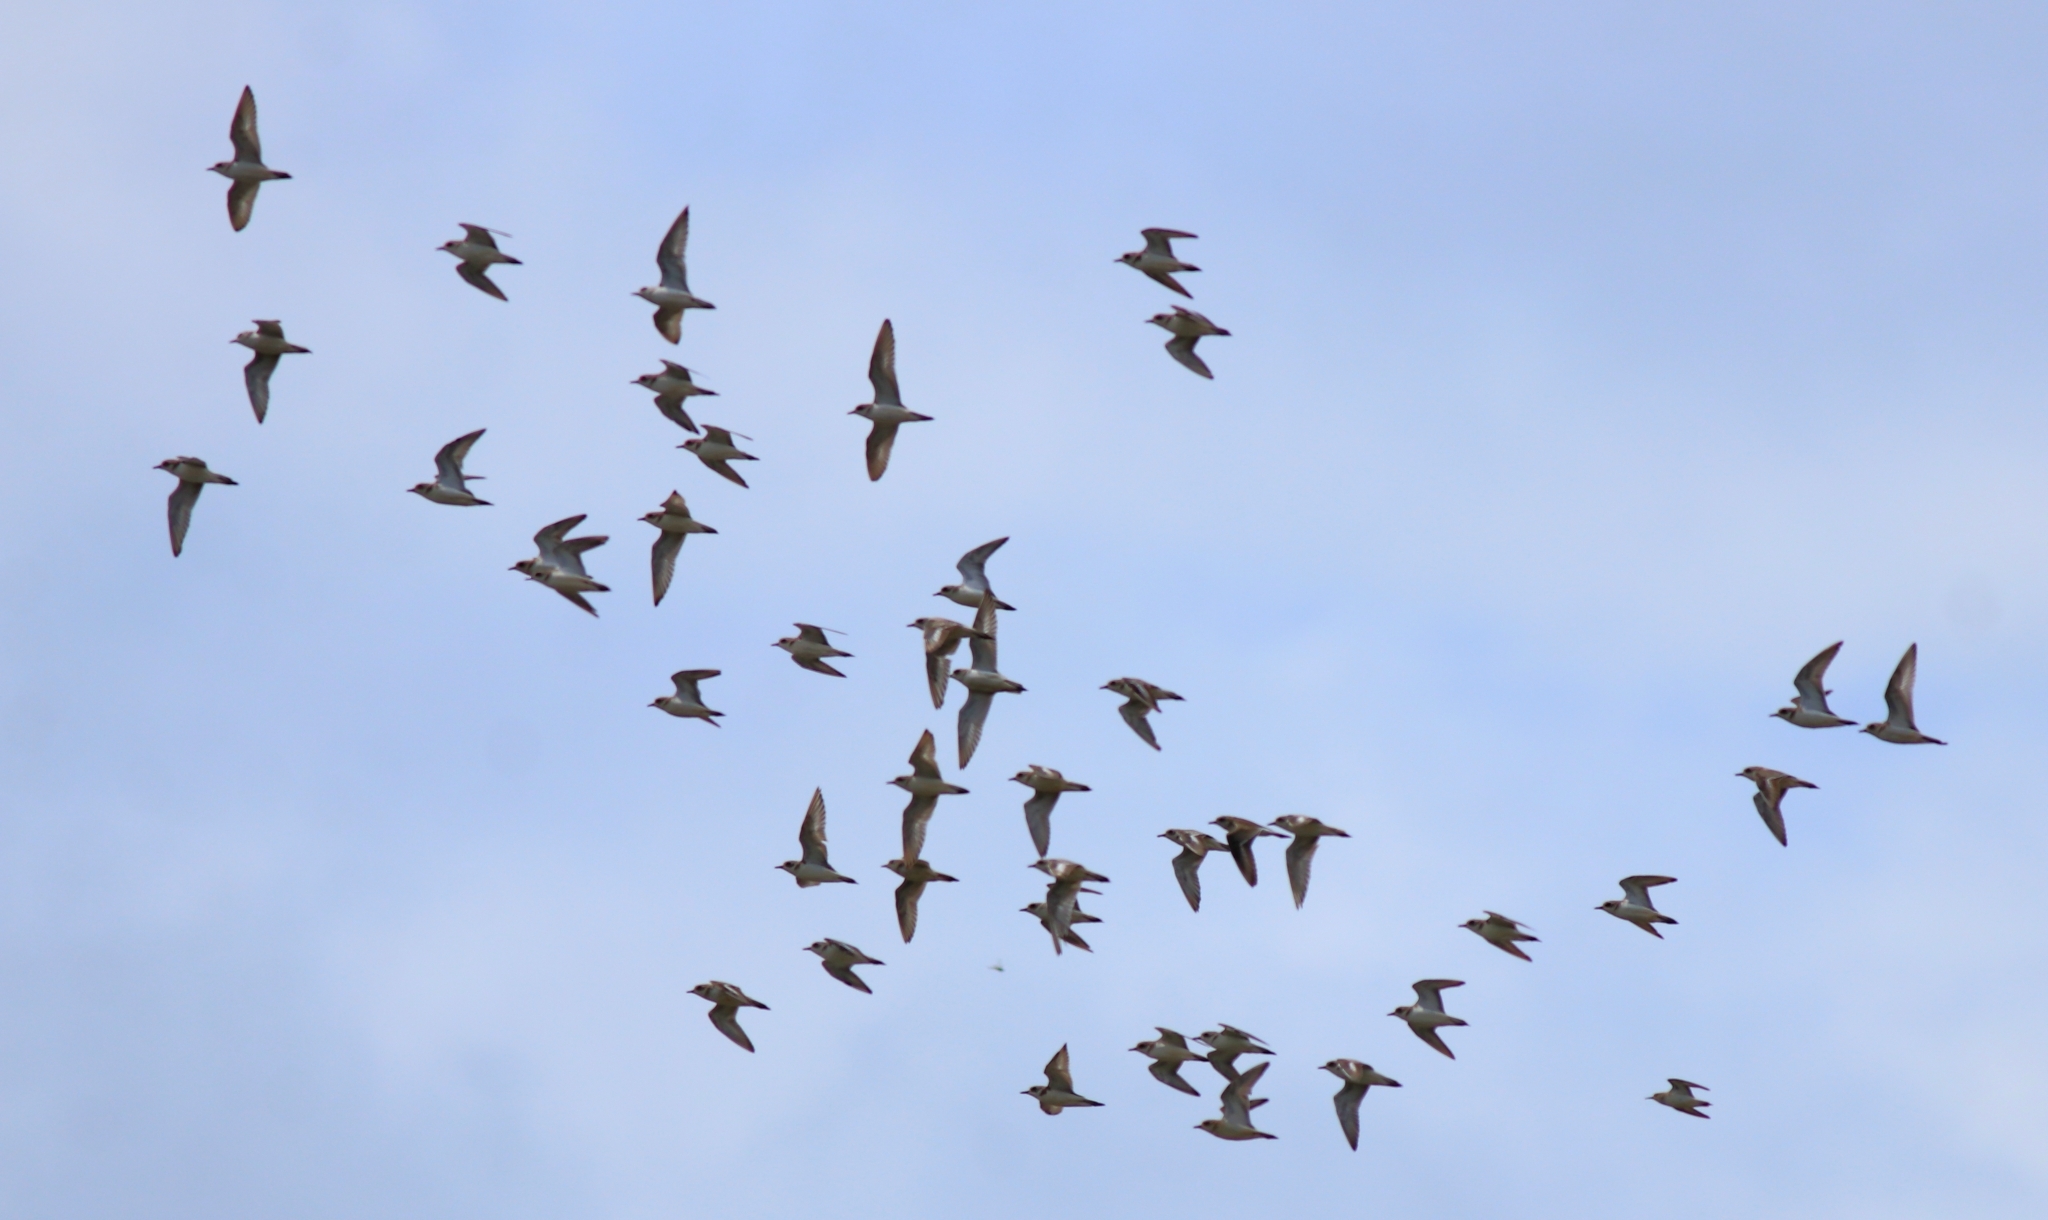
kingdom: Animalia
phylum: Chordata
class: Aves
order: Charadriiformes
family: Charadriidae
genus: Anarhynchus
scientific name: Anarhynchus
